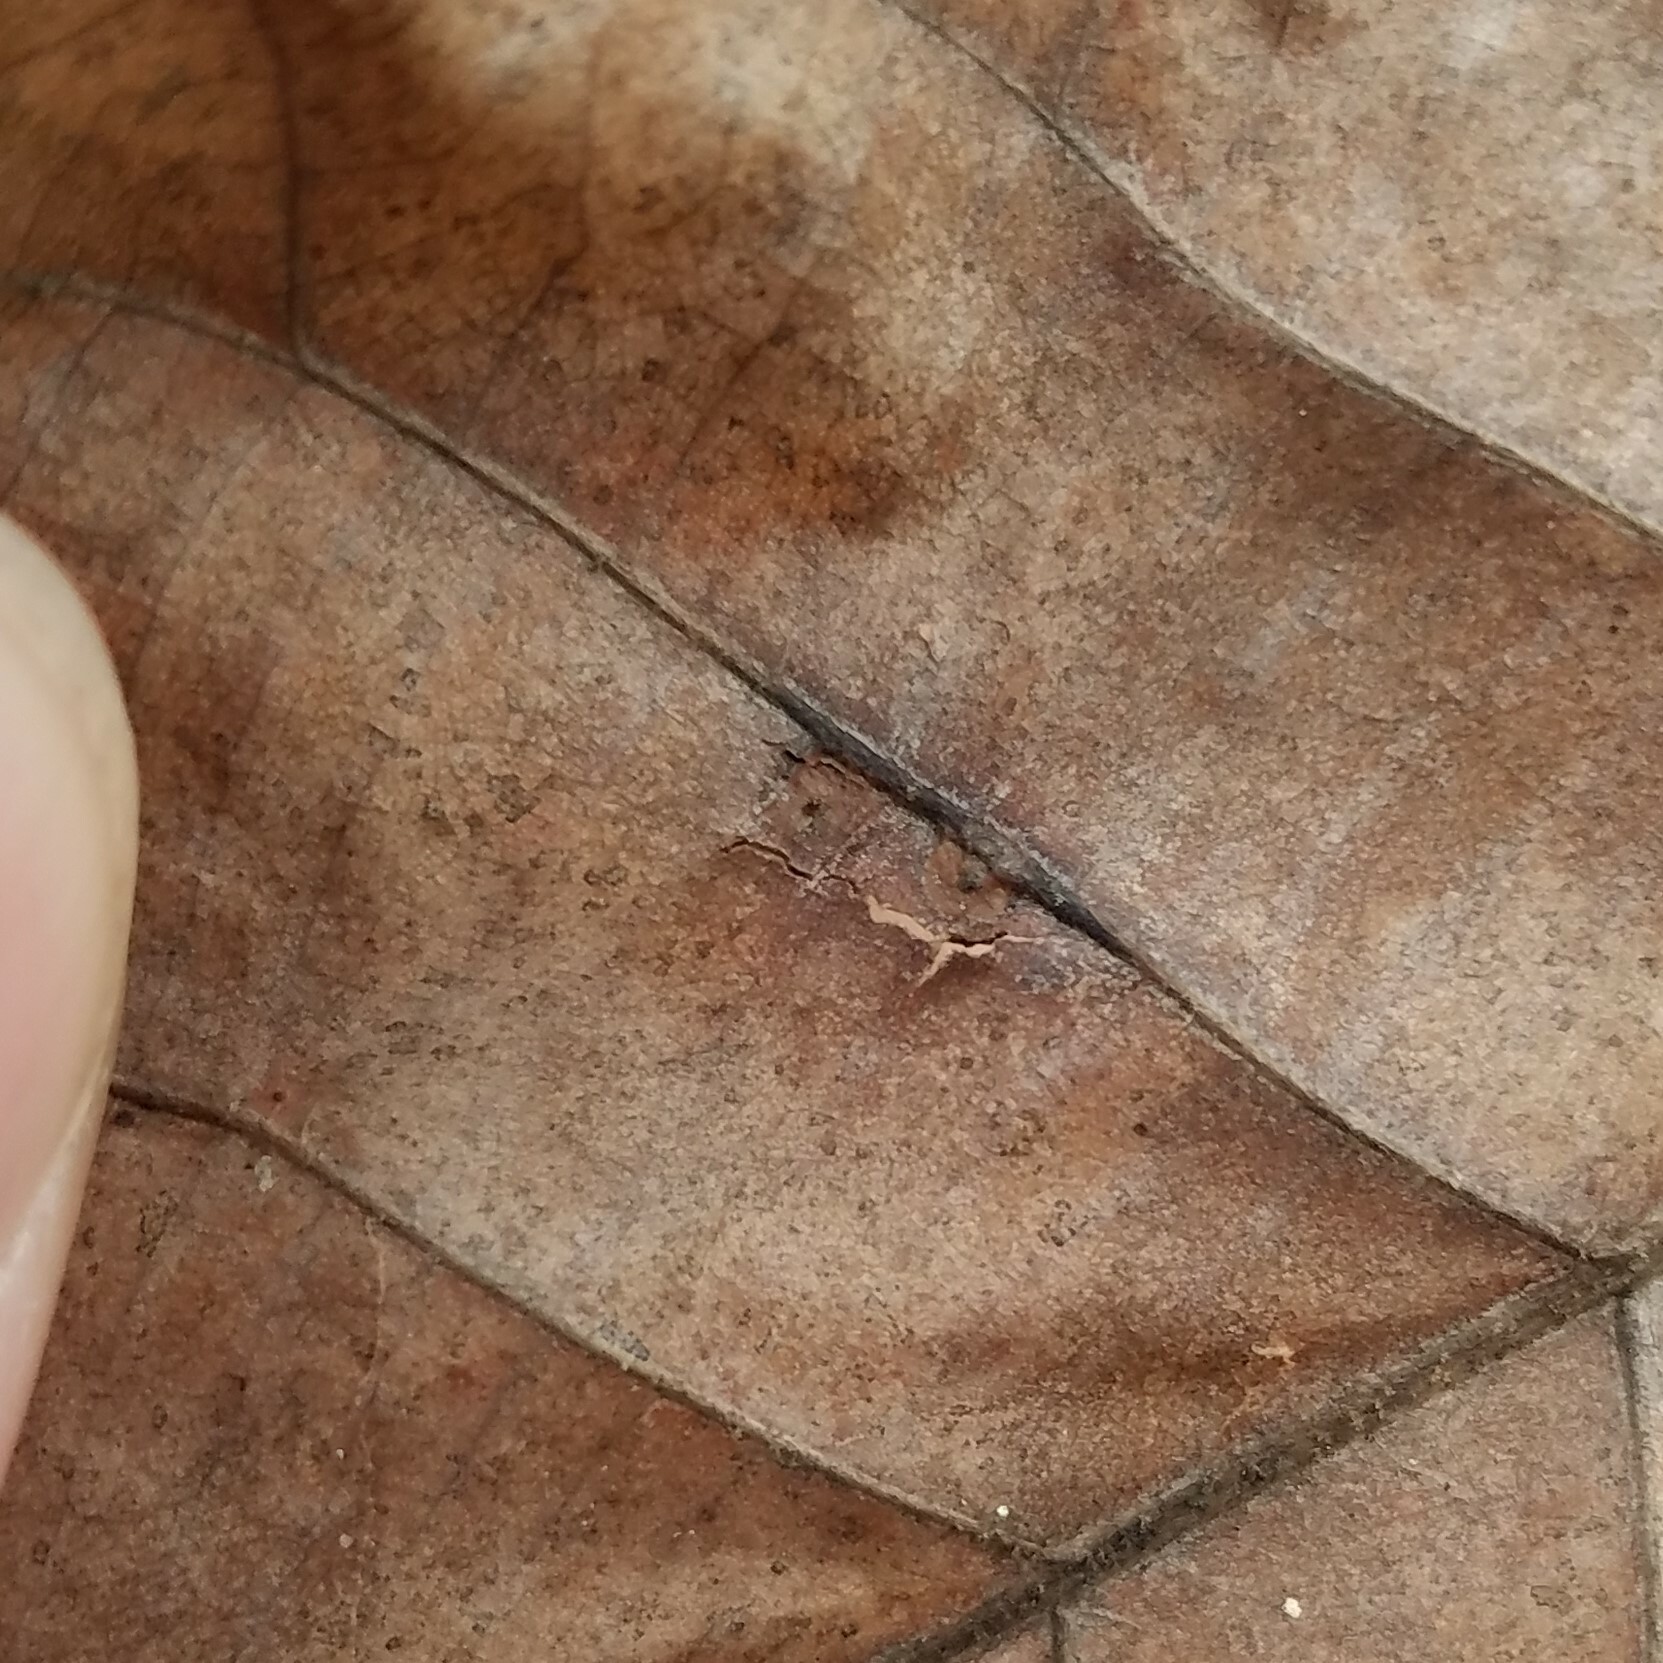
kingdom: Animalia
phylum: Arthropoda
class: Insecta
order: Diptera
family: Cecidomyiidae
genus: Caryomyia
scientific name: Caryomyia caryaecola
